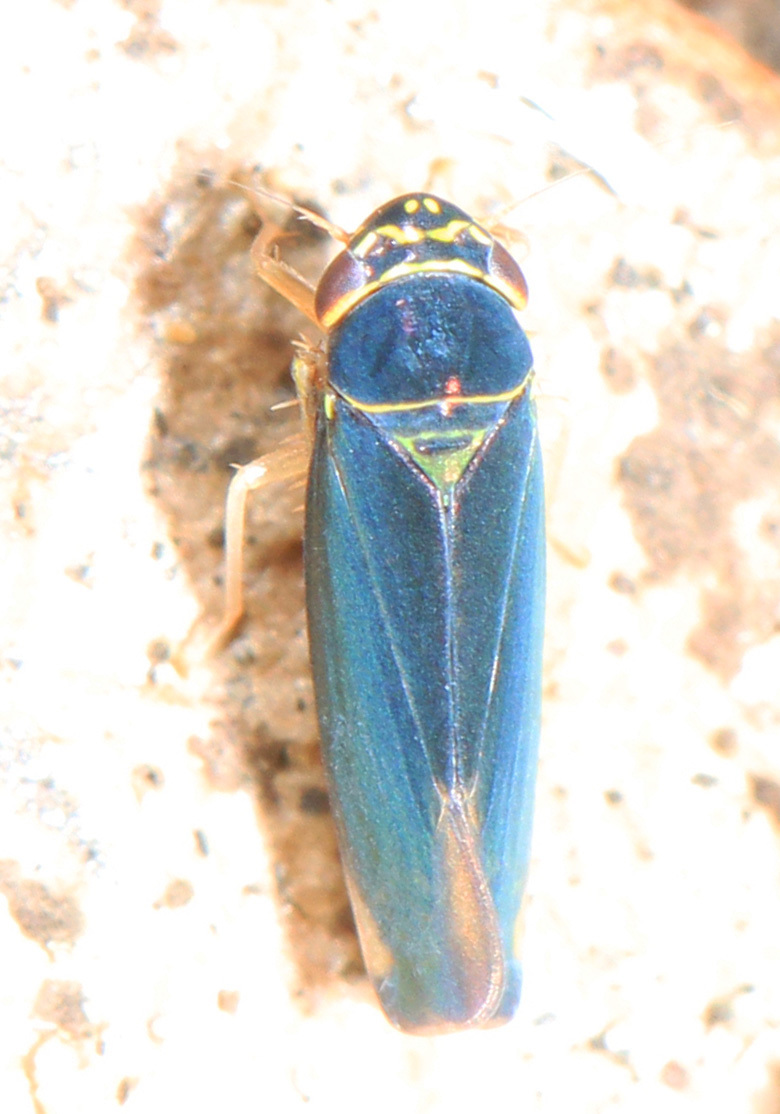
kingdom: Animalia
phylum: Arthropoda
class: Insecta
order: Hemiptera
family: Cicadellidae
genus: Tylozygus
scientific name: Tylozygus geometricus
